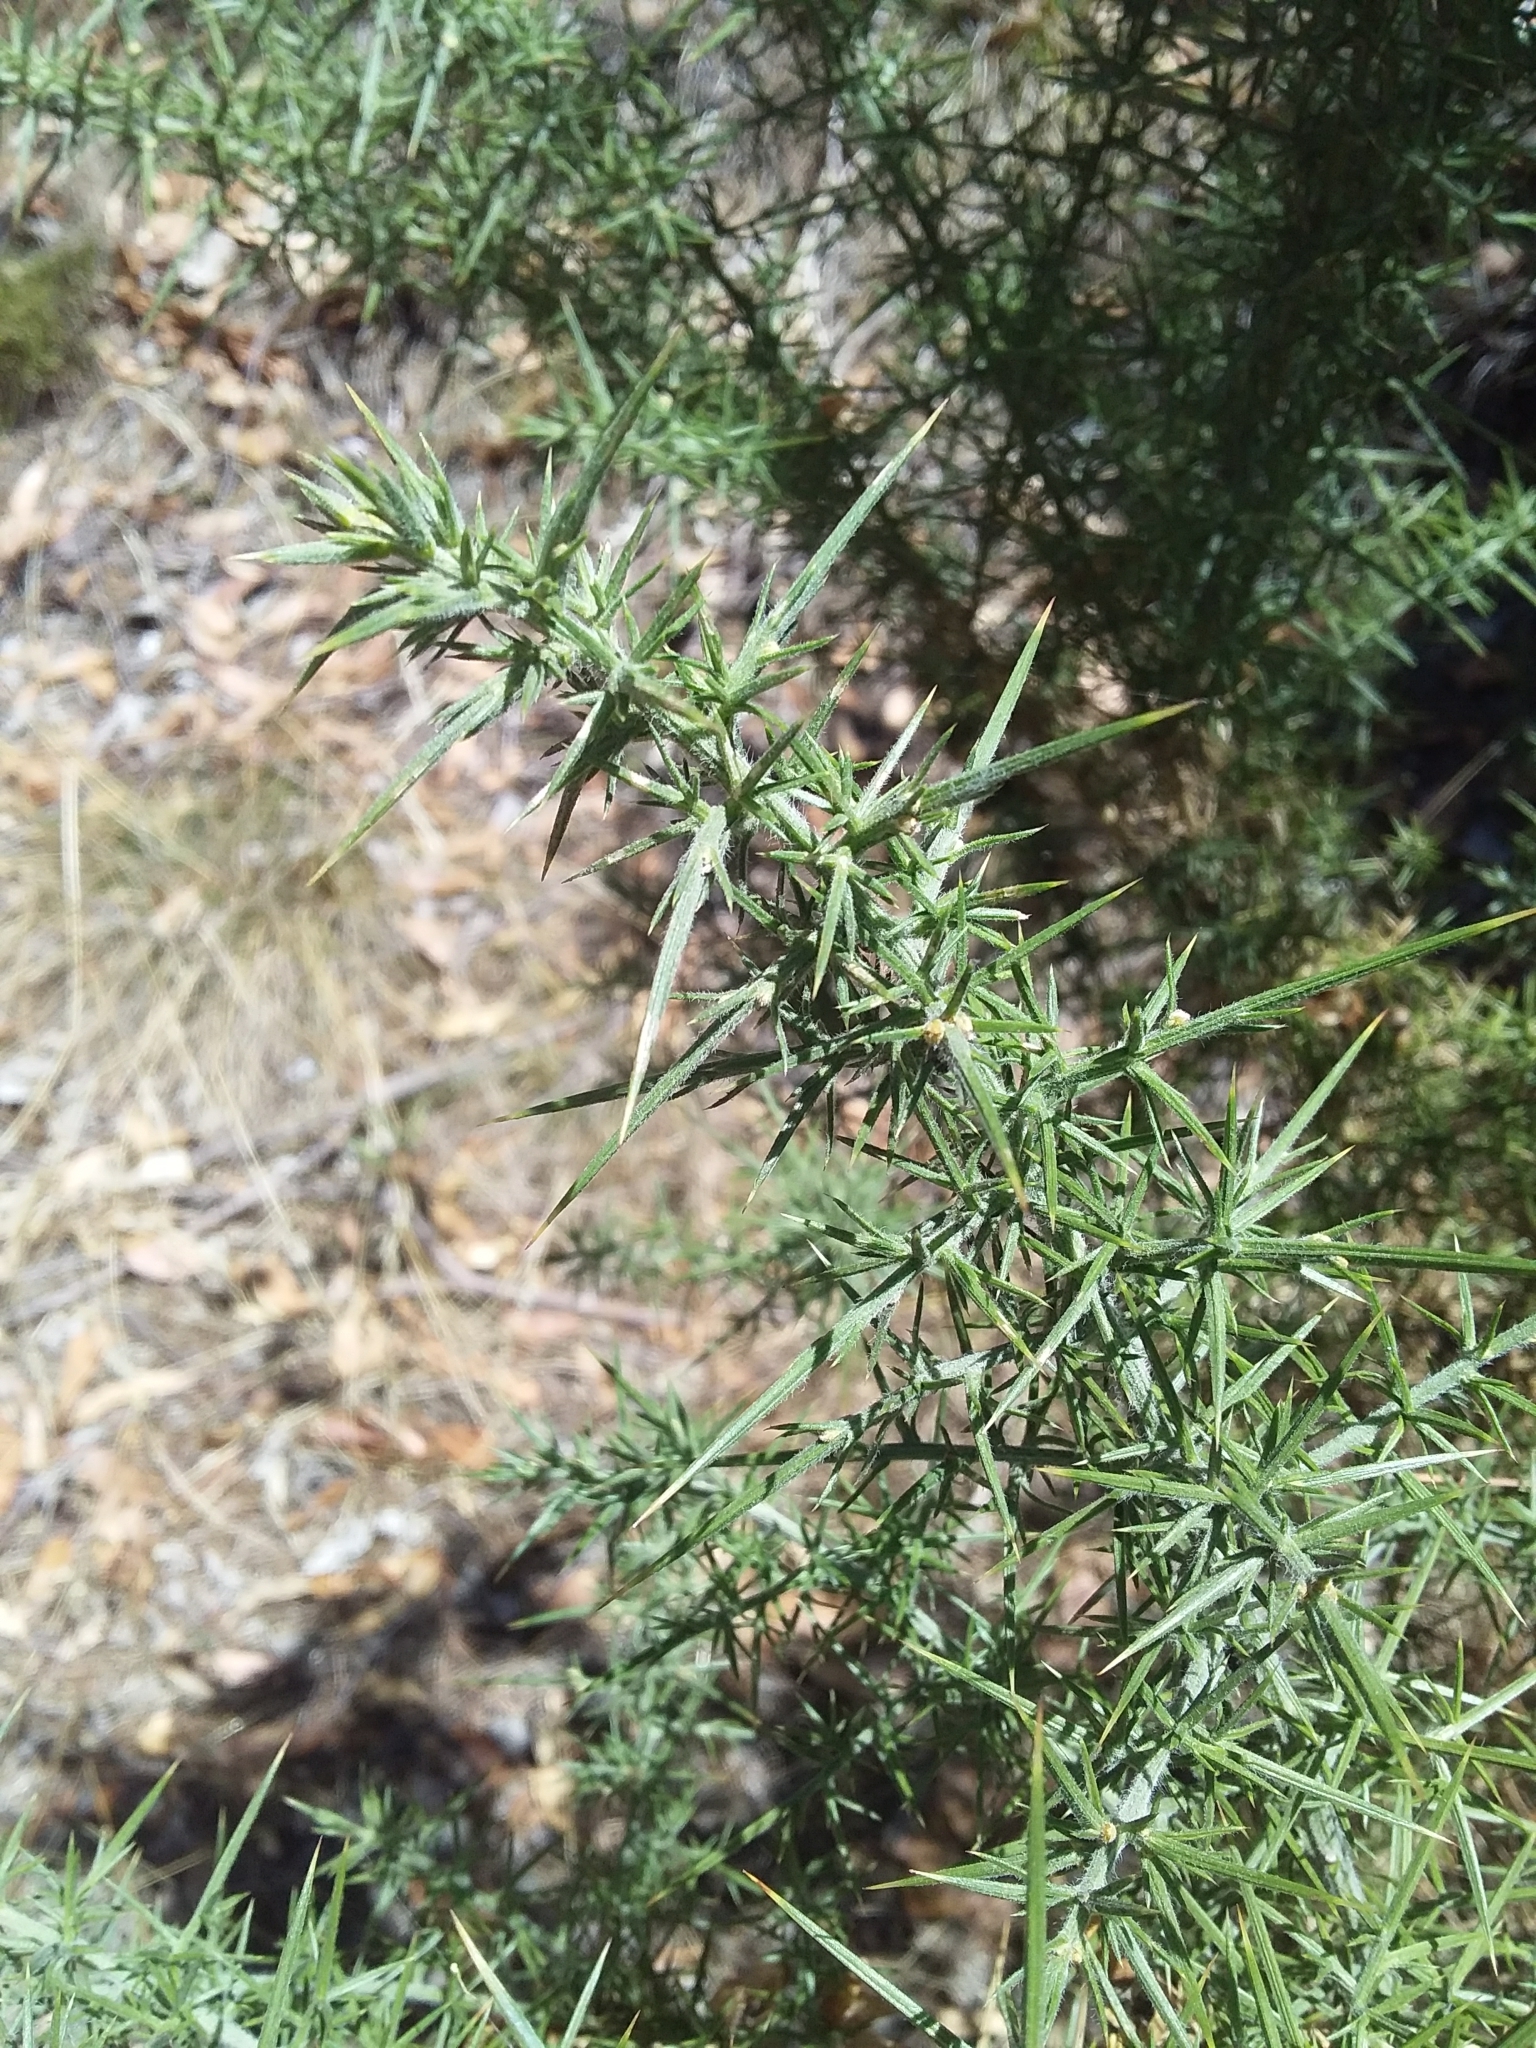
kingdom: Plantae
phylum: Tracheophyta
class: Magnoliopsida
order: Fabales
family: Fabaceae
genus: Ulex
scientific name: Ulex europaeus
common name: Common gorse
